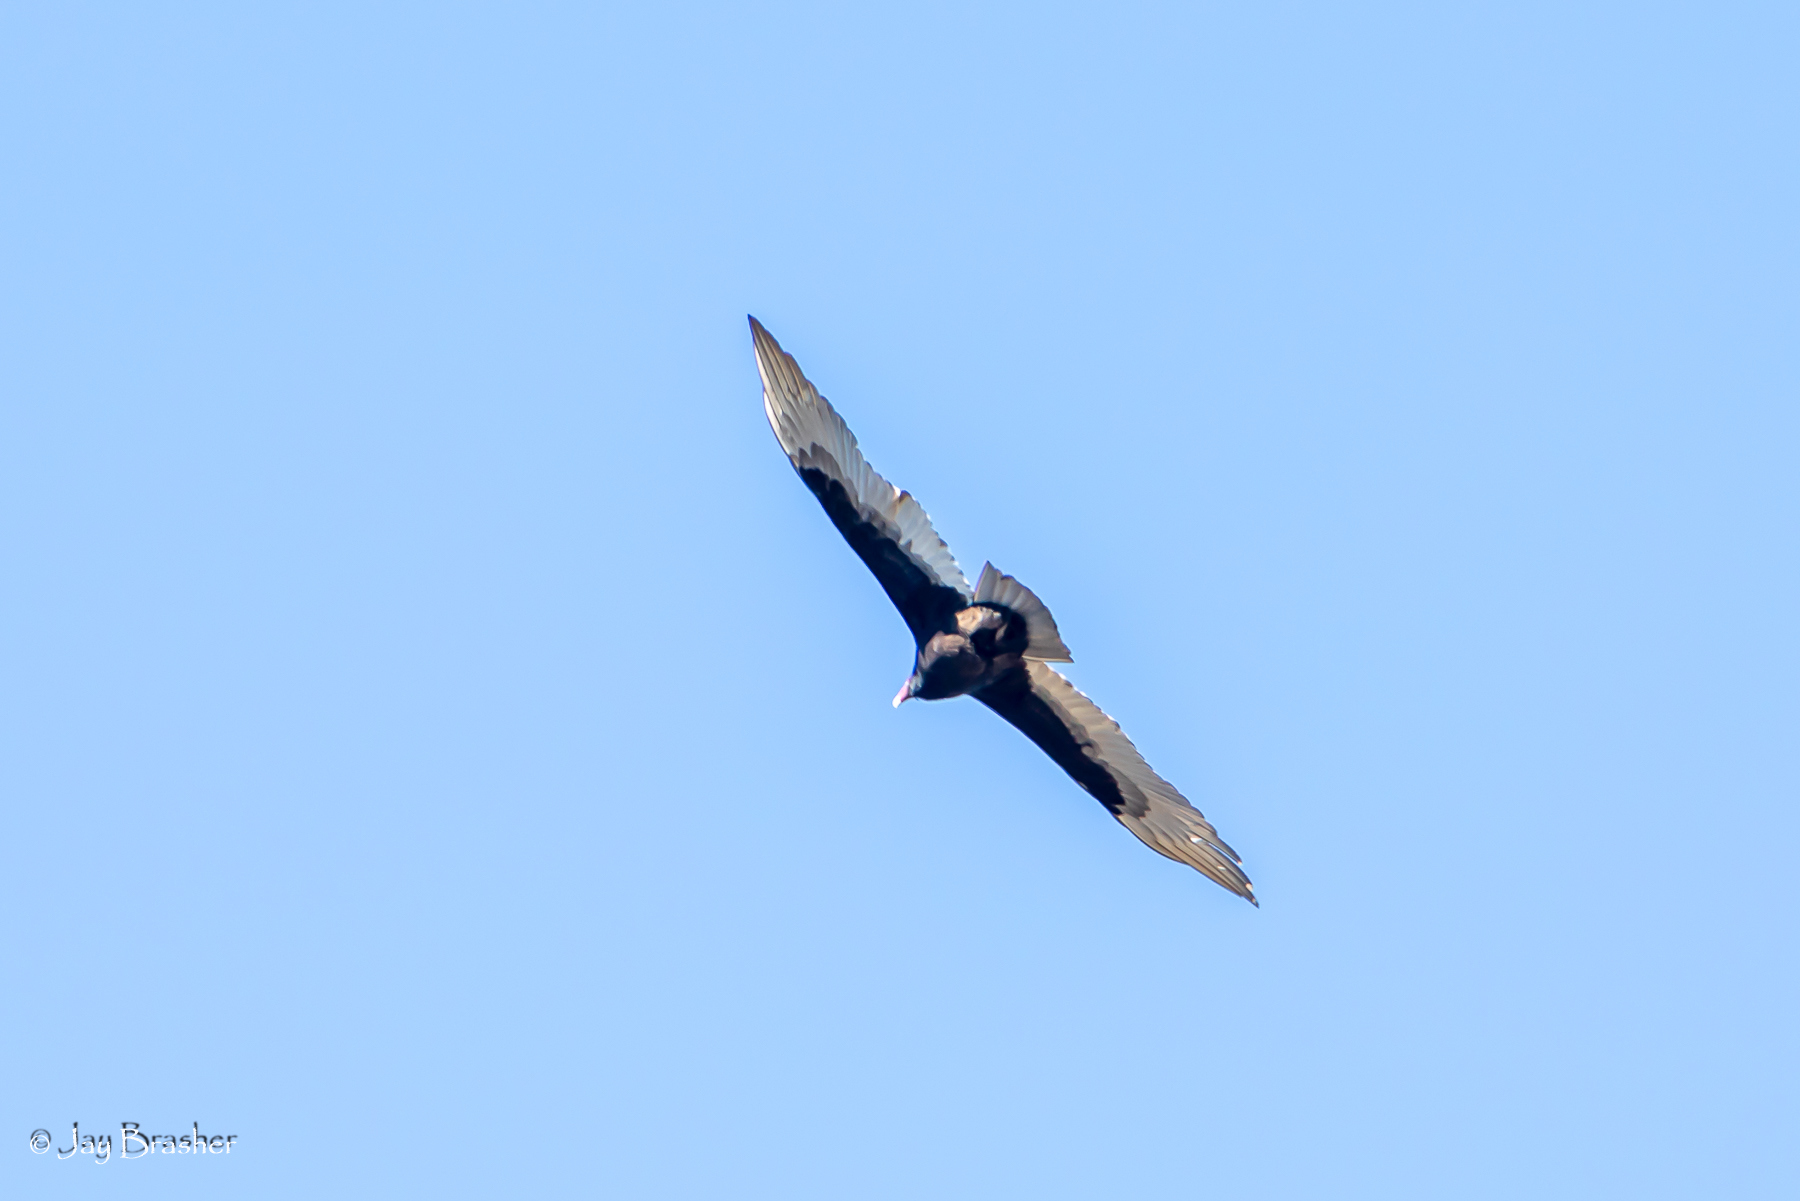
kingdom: Animalia
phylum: Chordata
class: Aves
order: Accipitriformes
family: Cathartidae
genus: Cathartes
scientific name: Cathartes aura
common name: Turkey vulture
